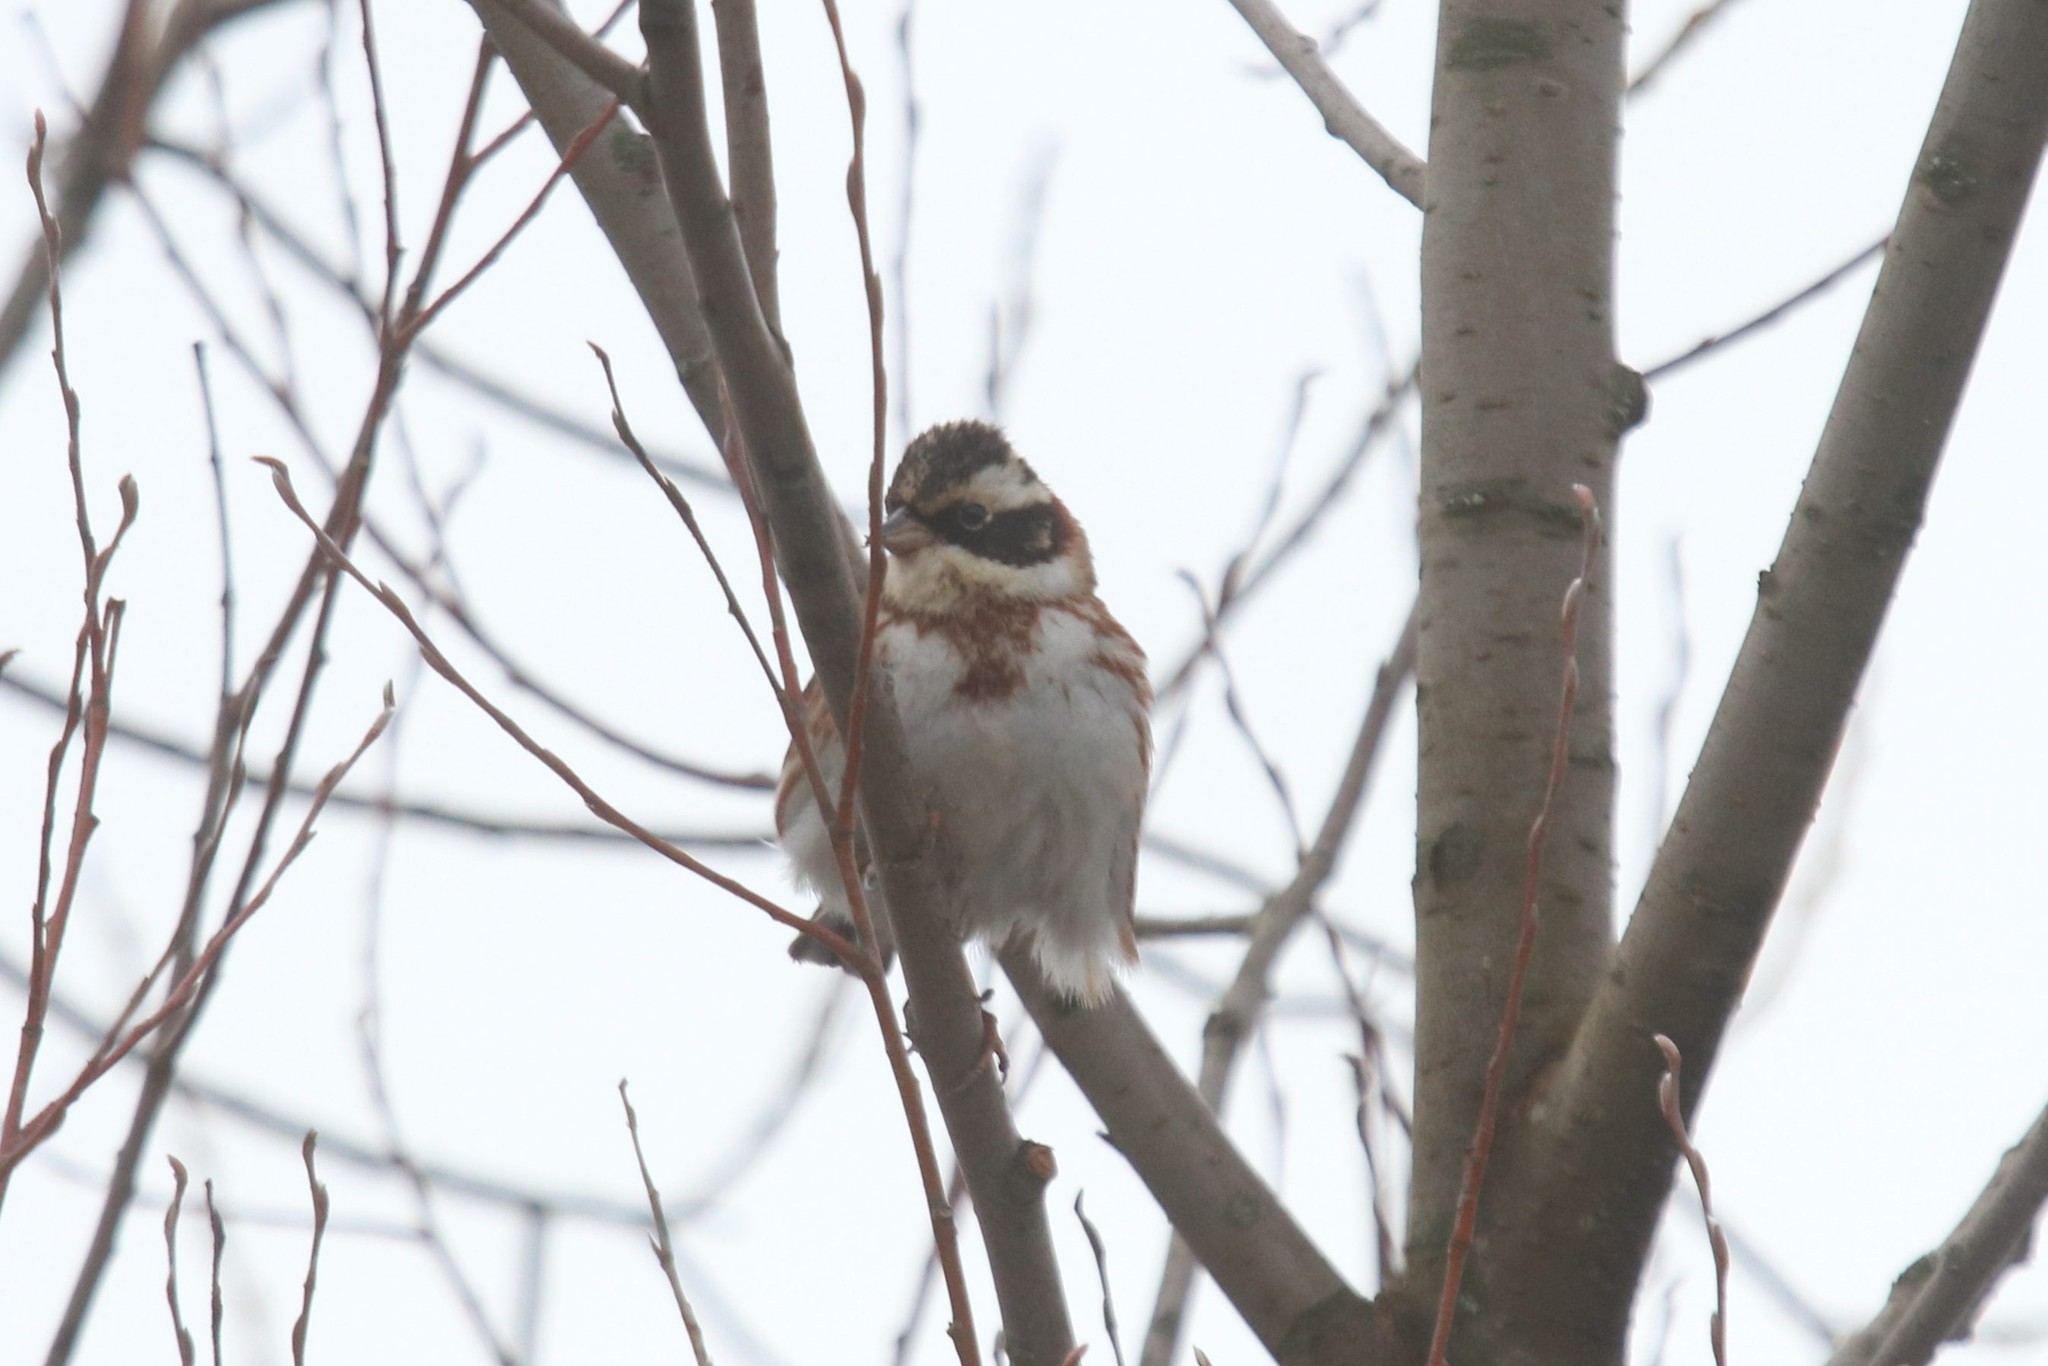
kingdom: Animalia
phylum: Chordata
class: Aves
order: Passeriformes
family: Emberizidae
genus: Emberiza
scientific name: Emberiza rustica
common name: Rustic bunting
